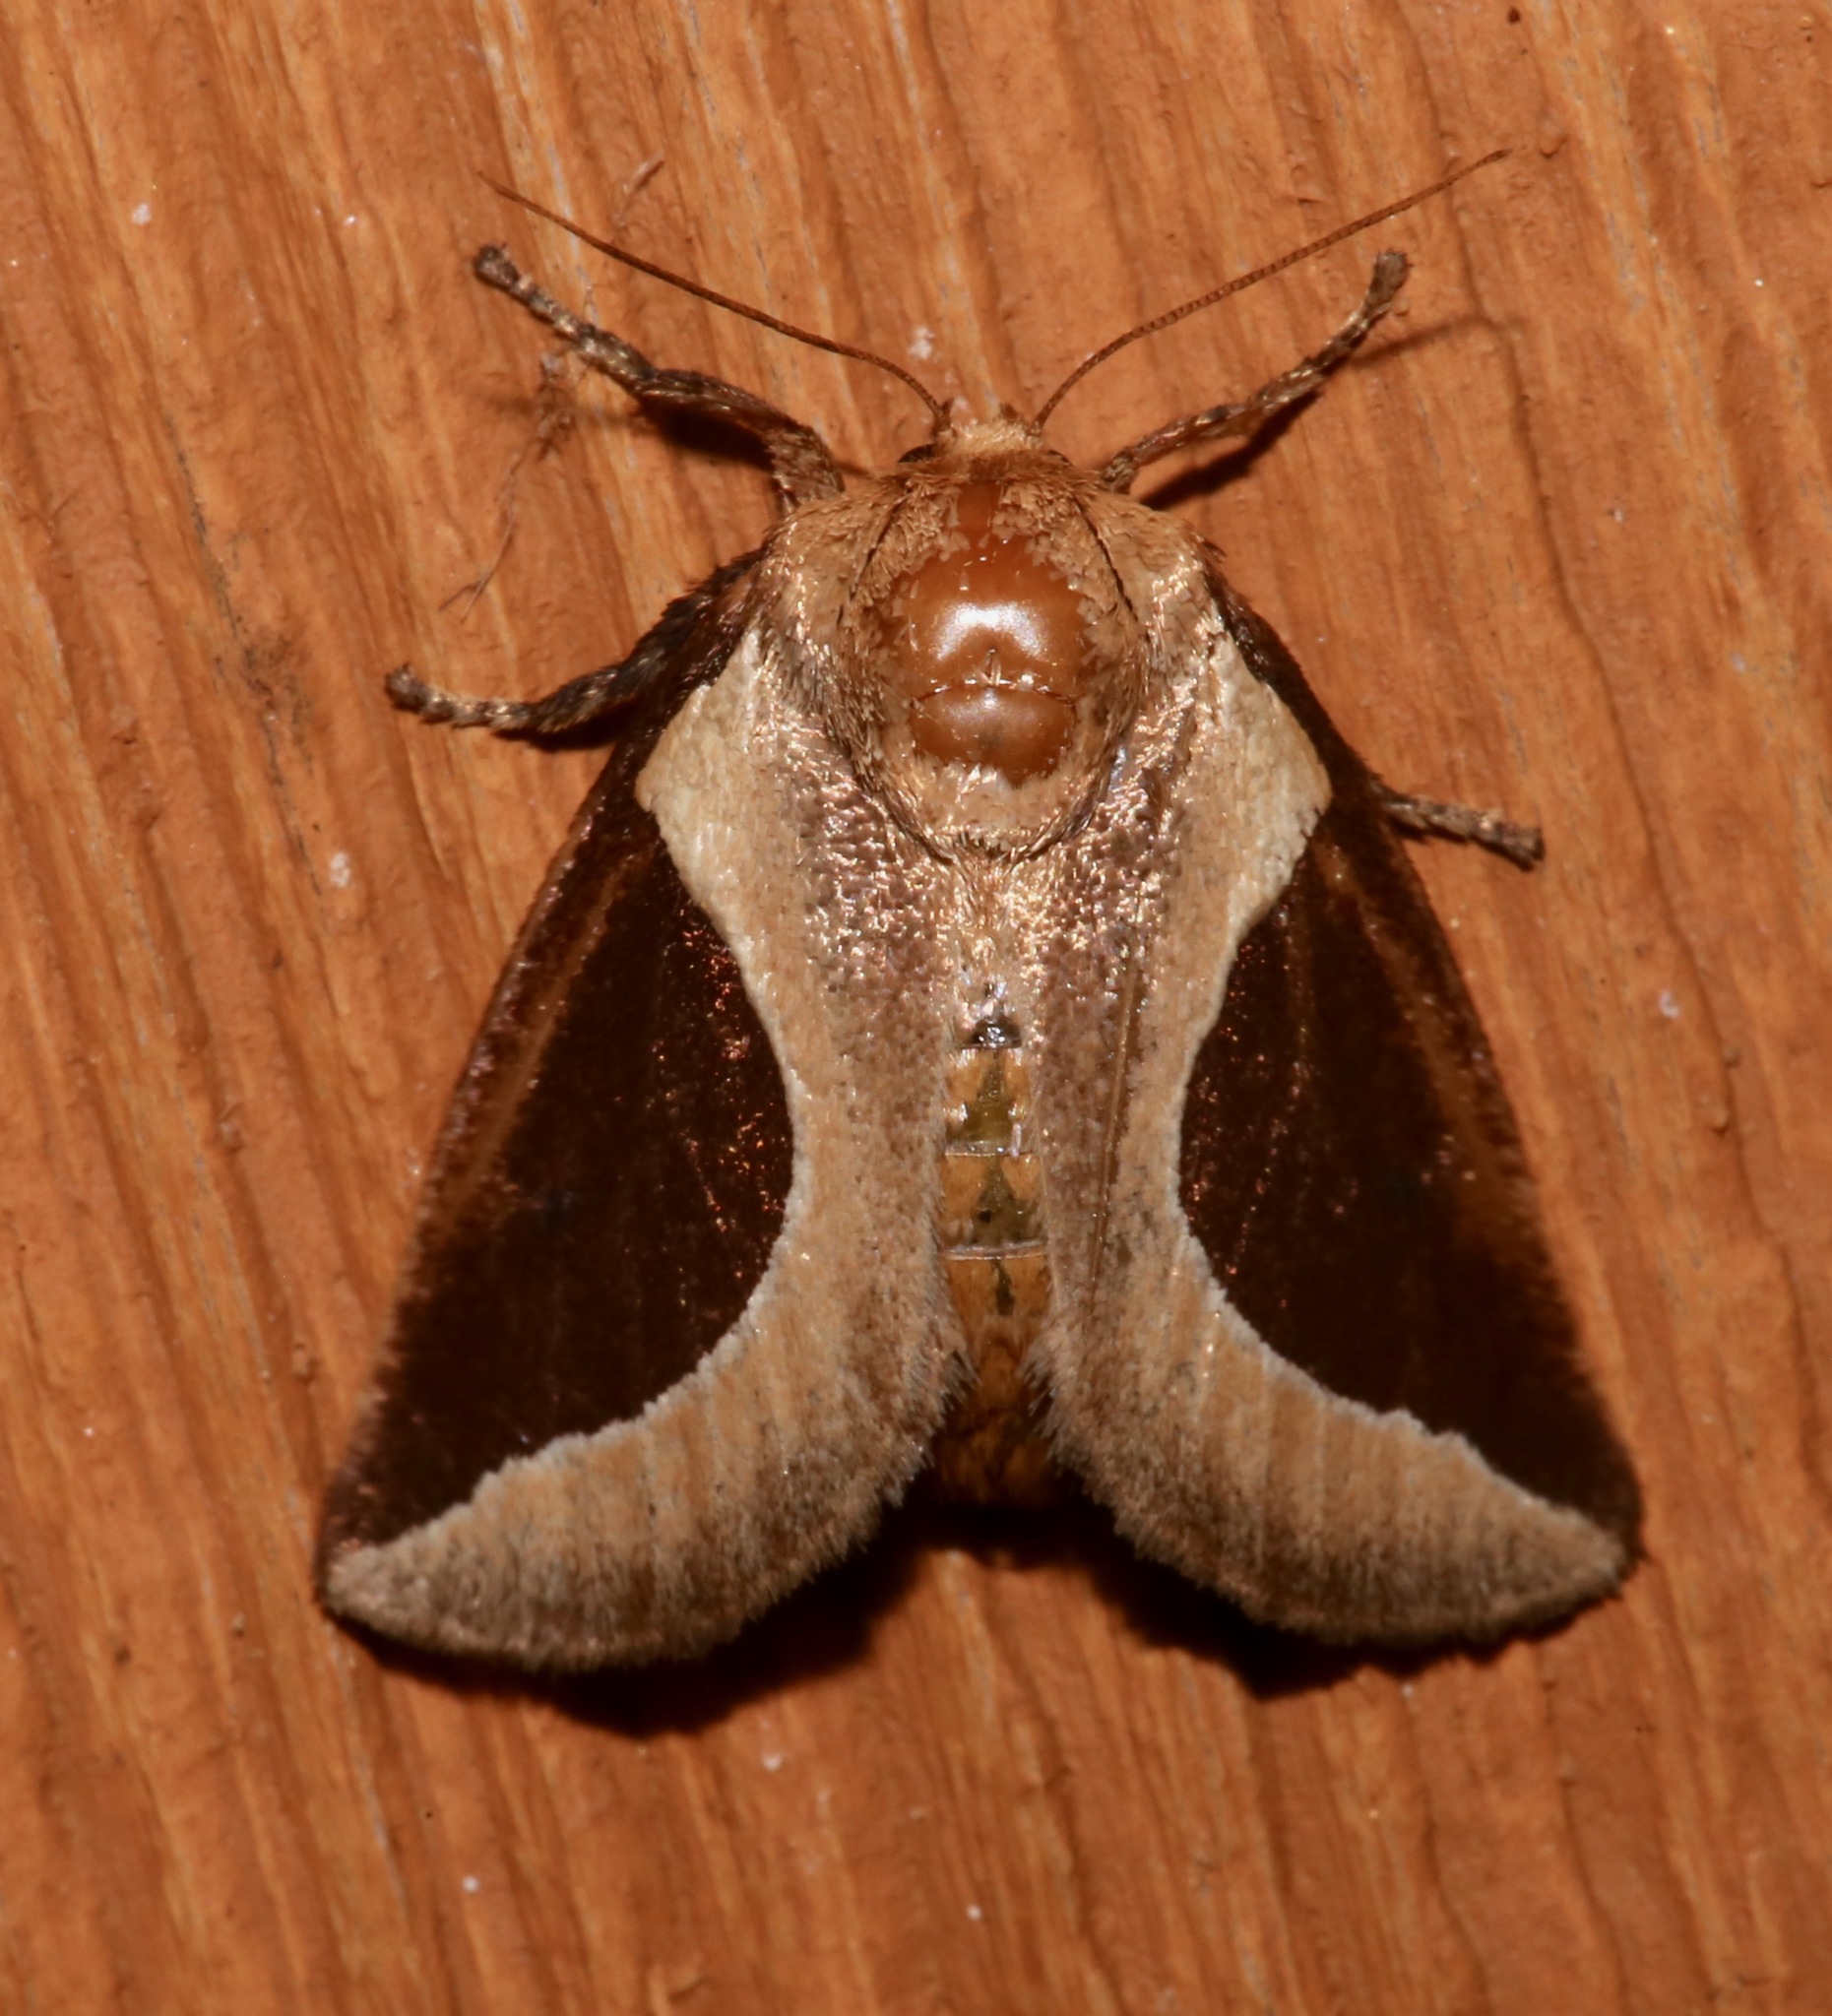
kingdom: Animalia
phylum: Arthropoda
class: Insecta
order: Lepidoptera
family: Limacodidae
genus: Prolimacodes
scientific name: Prolimacodes badia
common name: Skiff moth
